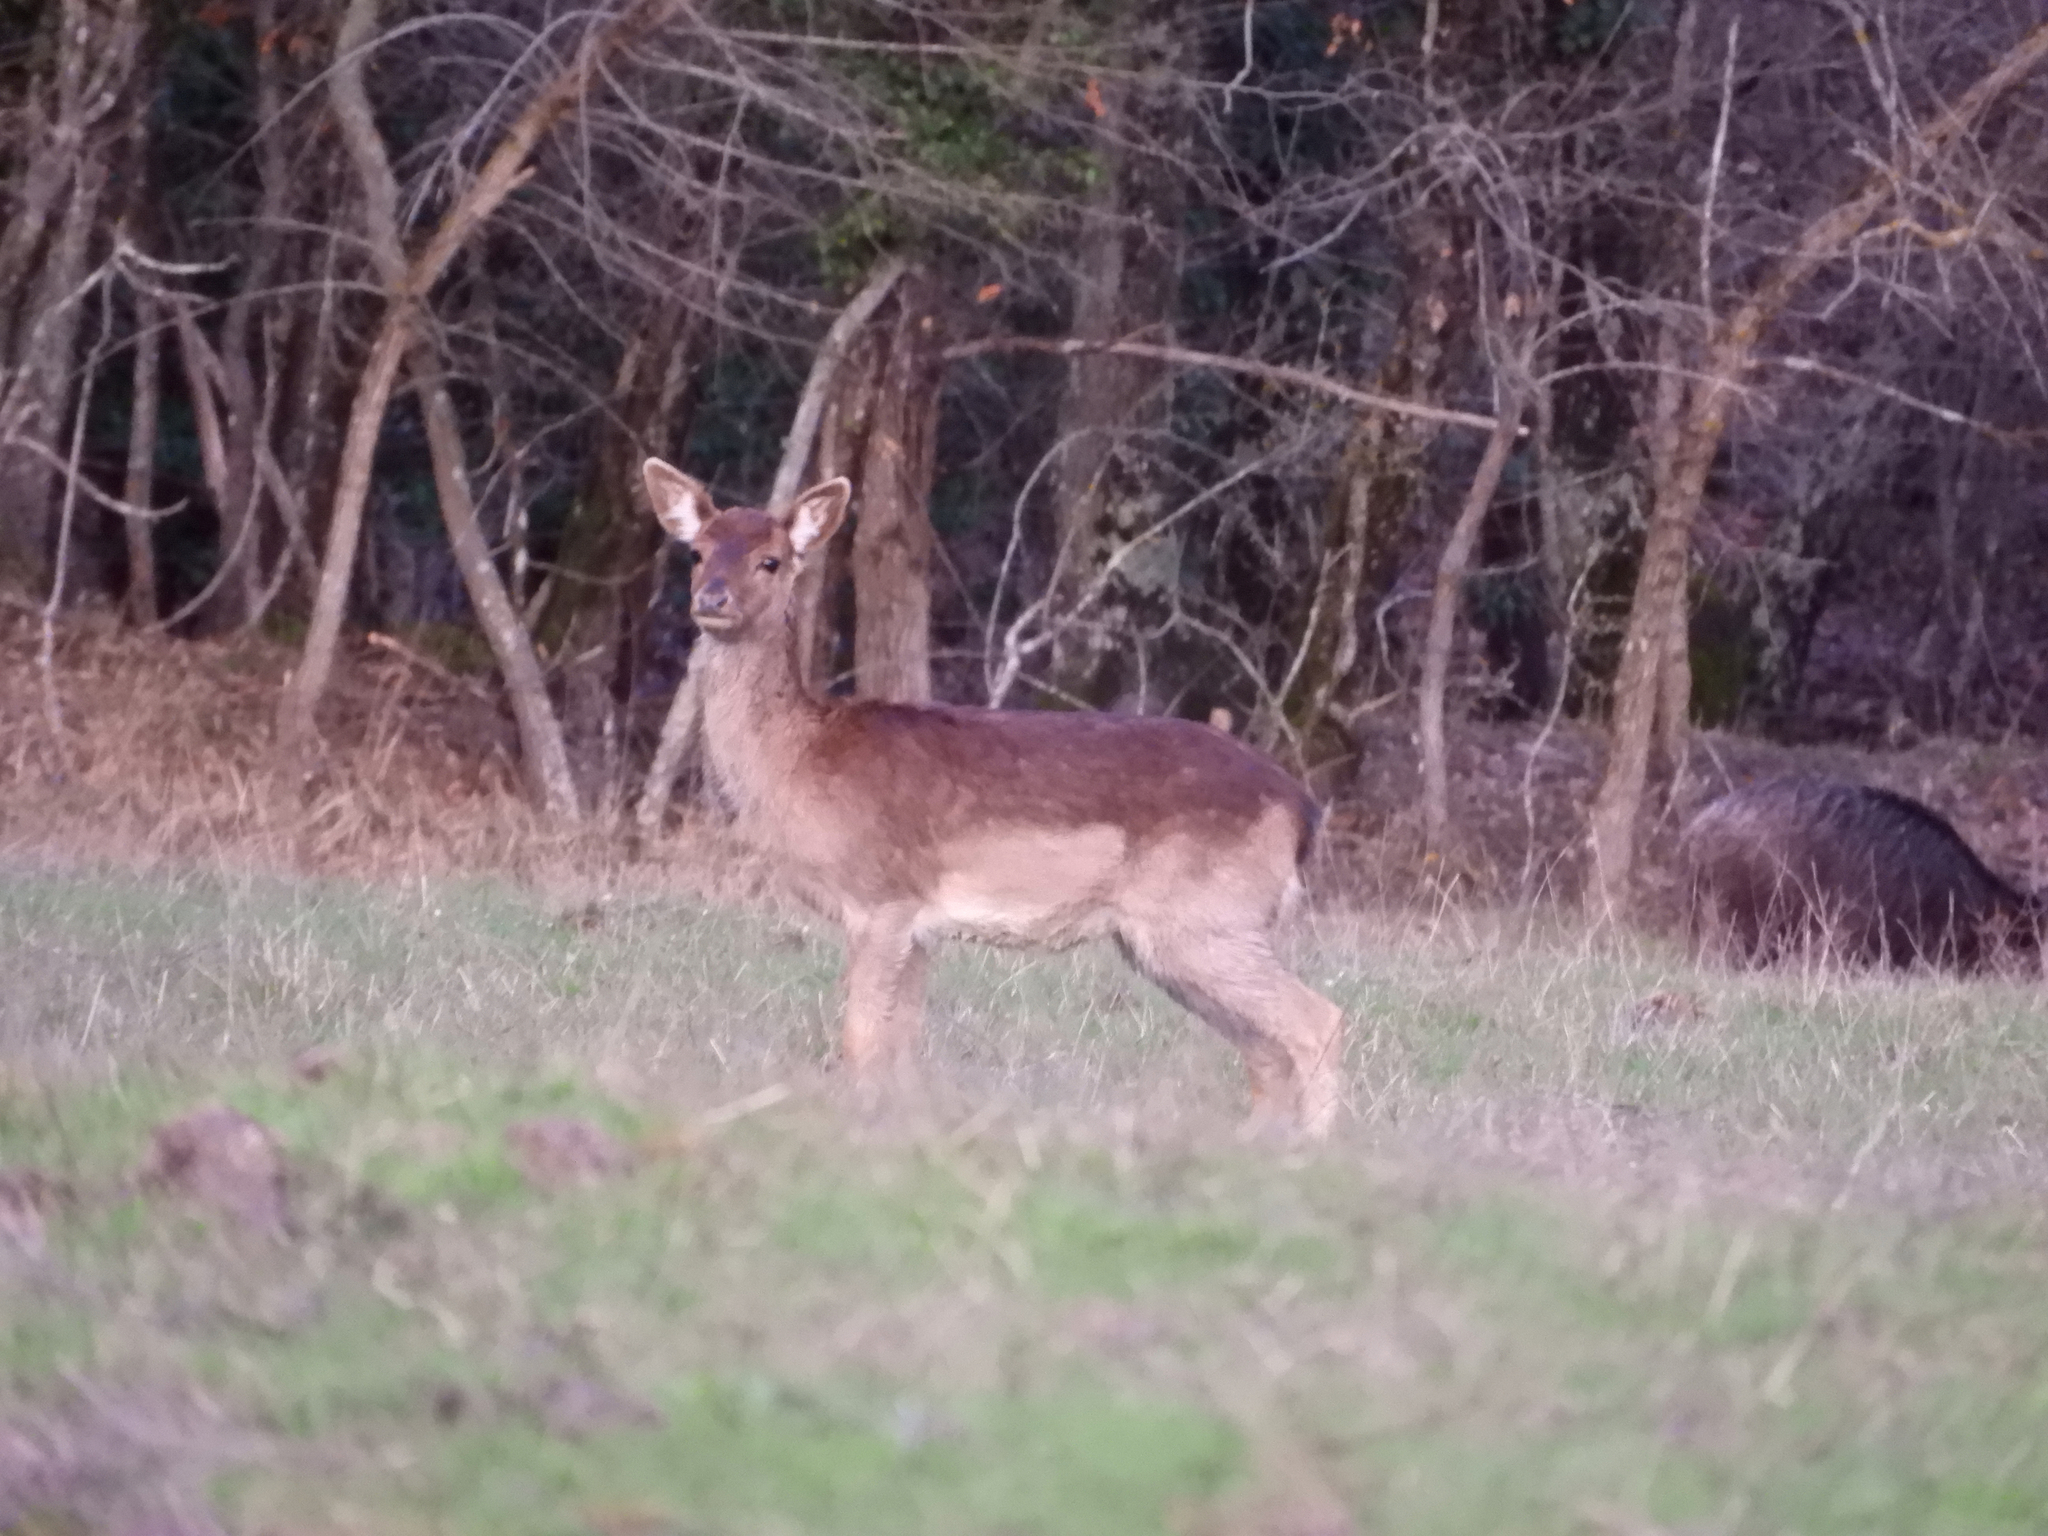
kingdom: Animalia
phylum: Chordata
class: Mammalia
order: Artiodactyla
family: Cervidae
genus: Dama
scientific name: Dama dama
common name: Fallow deer
